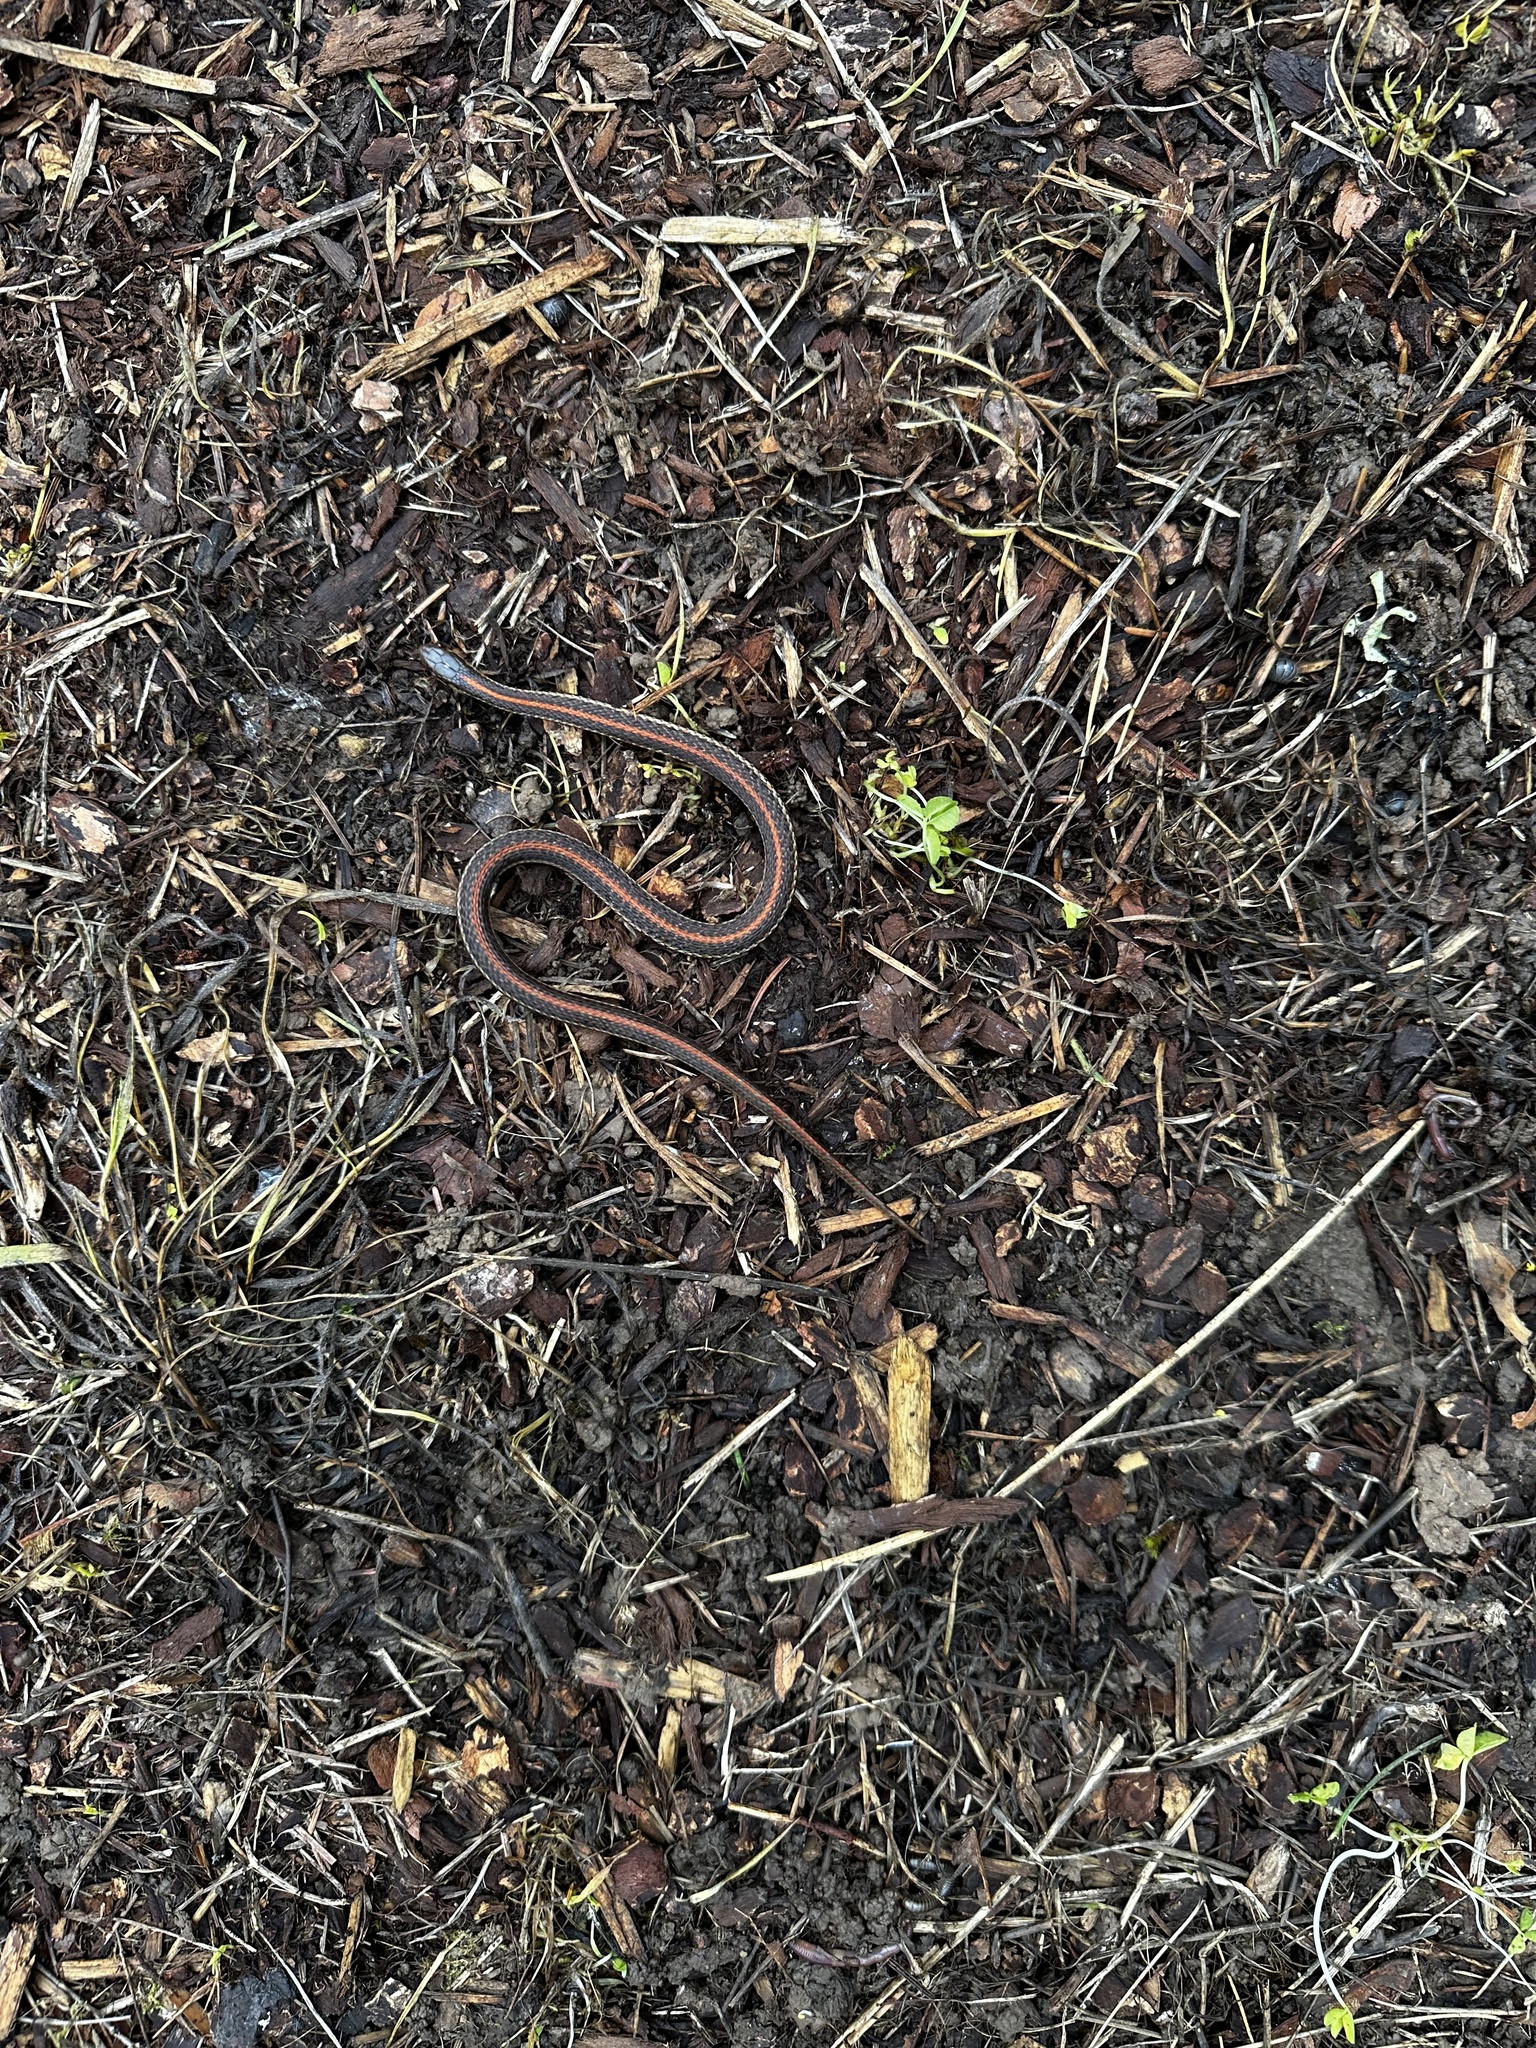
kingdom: Animalia
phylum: Chordata
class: Squamata
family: Colubridae
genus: Thamnophis
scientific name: Thamnophis ordinoides
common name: Northwestern garter snake
